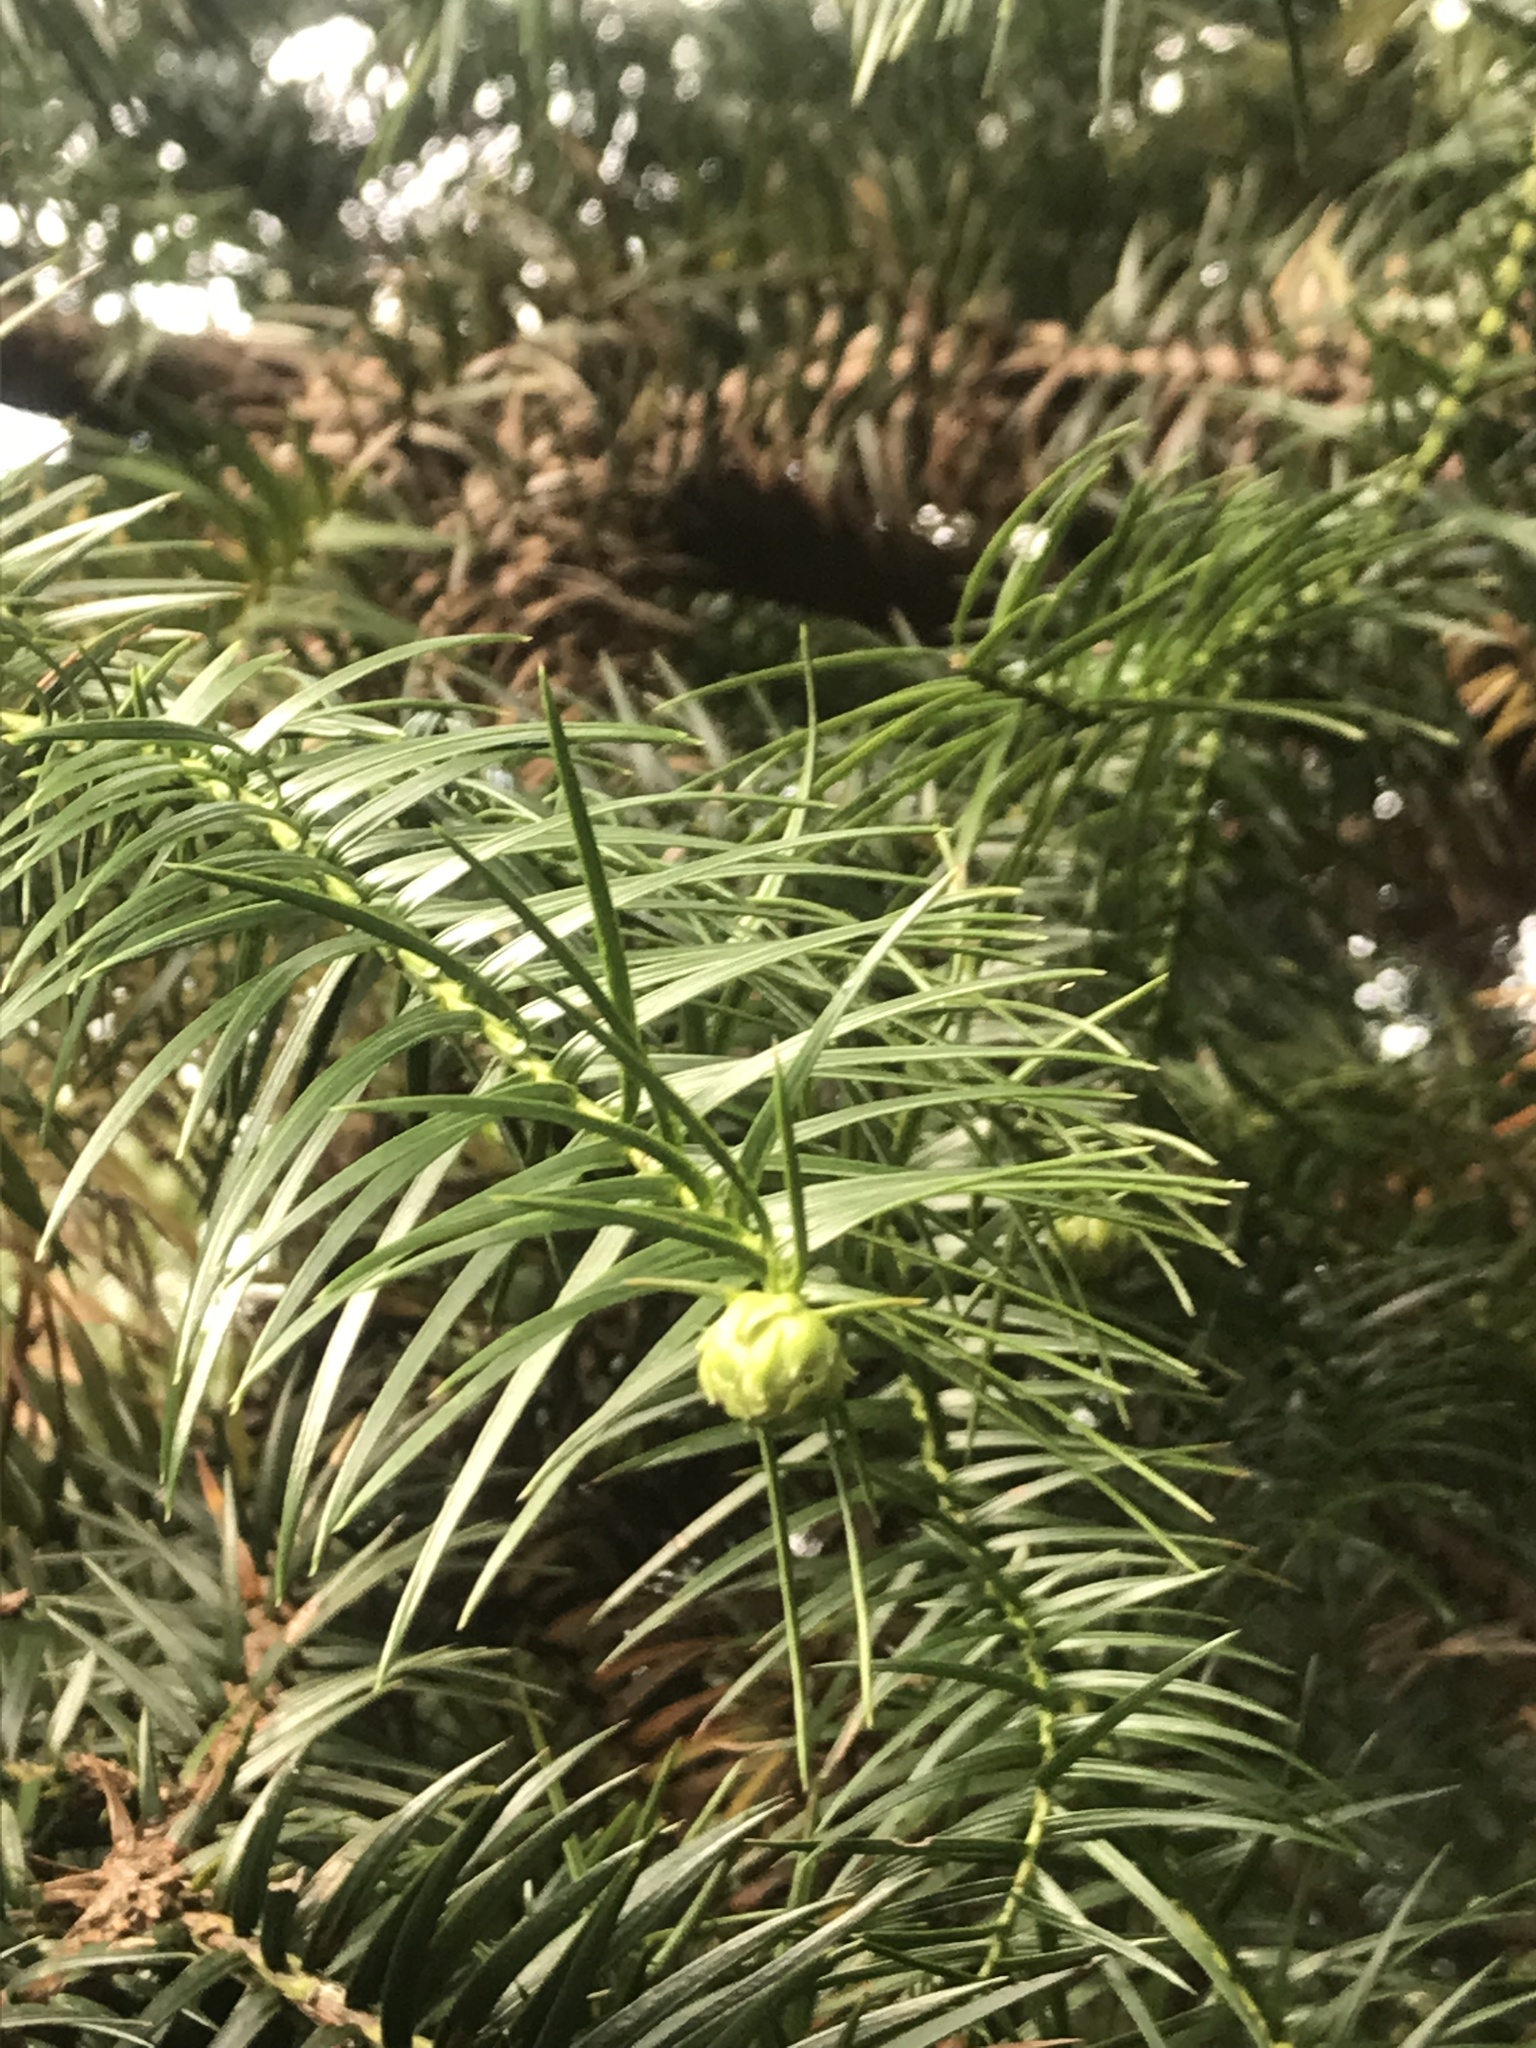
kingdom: Plantae
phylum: Tracheophyta
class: Pinopsida
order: Pinales
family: Cupressaceae
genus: Cunninghamia
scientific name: Cunninghamia lanceolata
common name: Chinese fir
